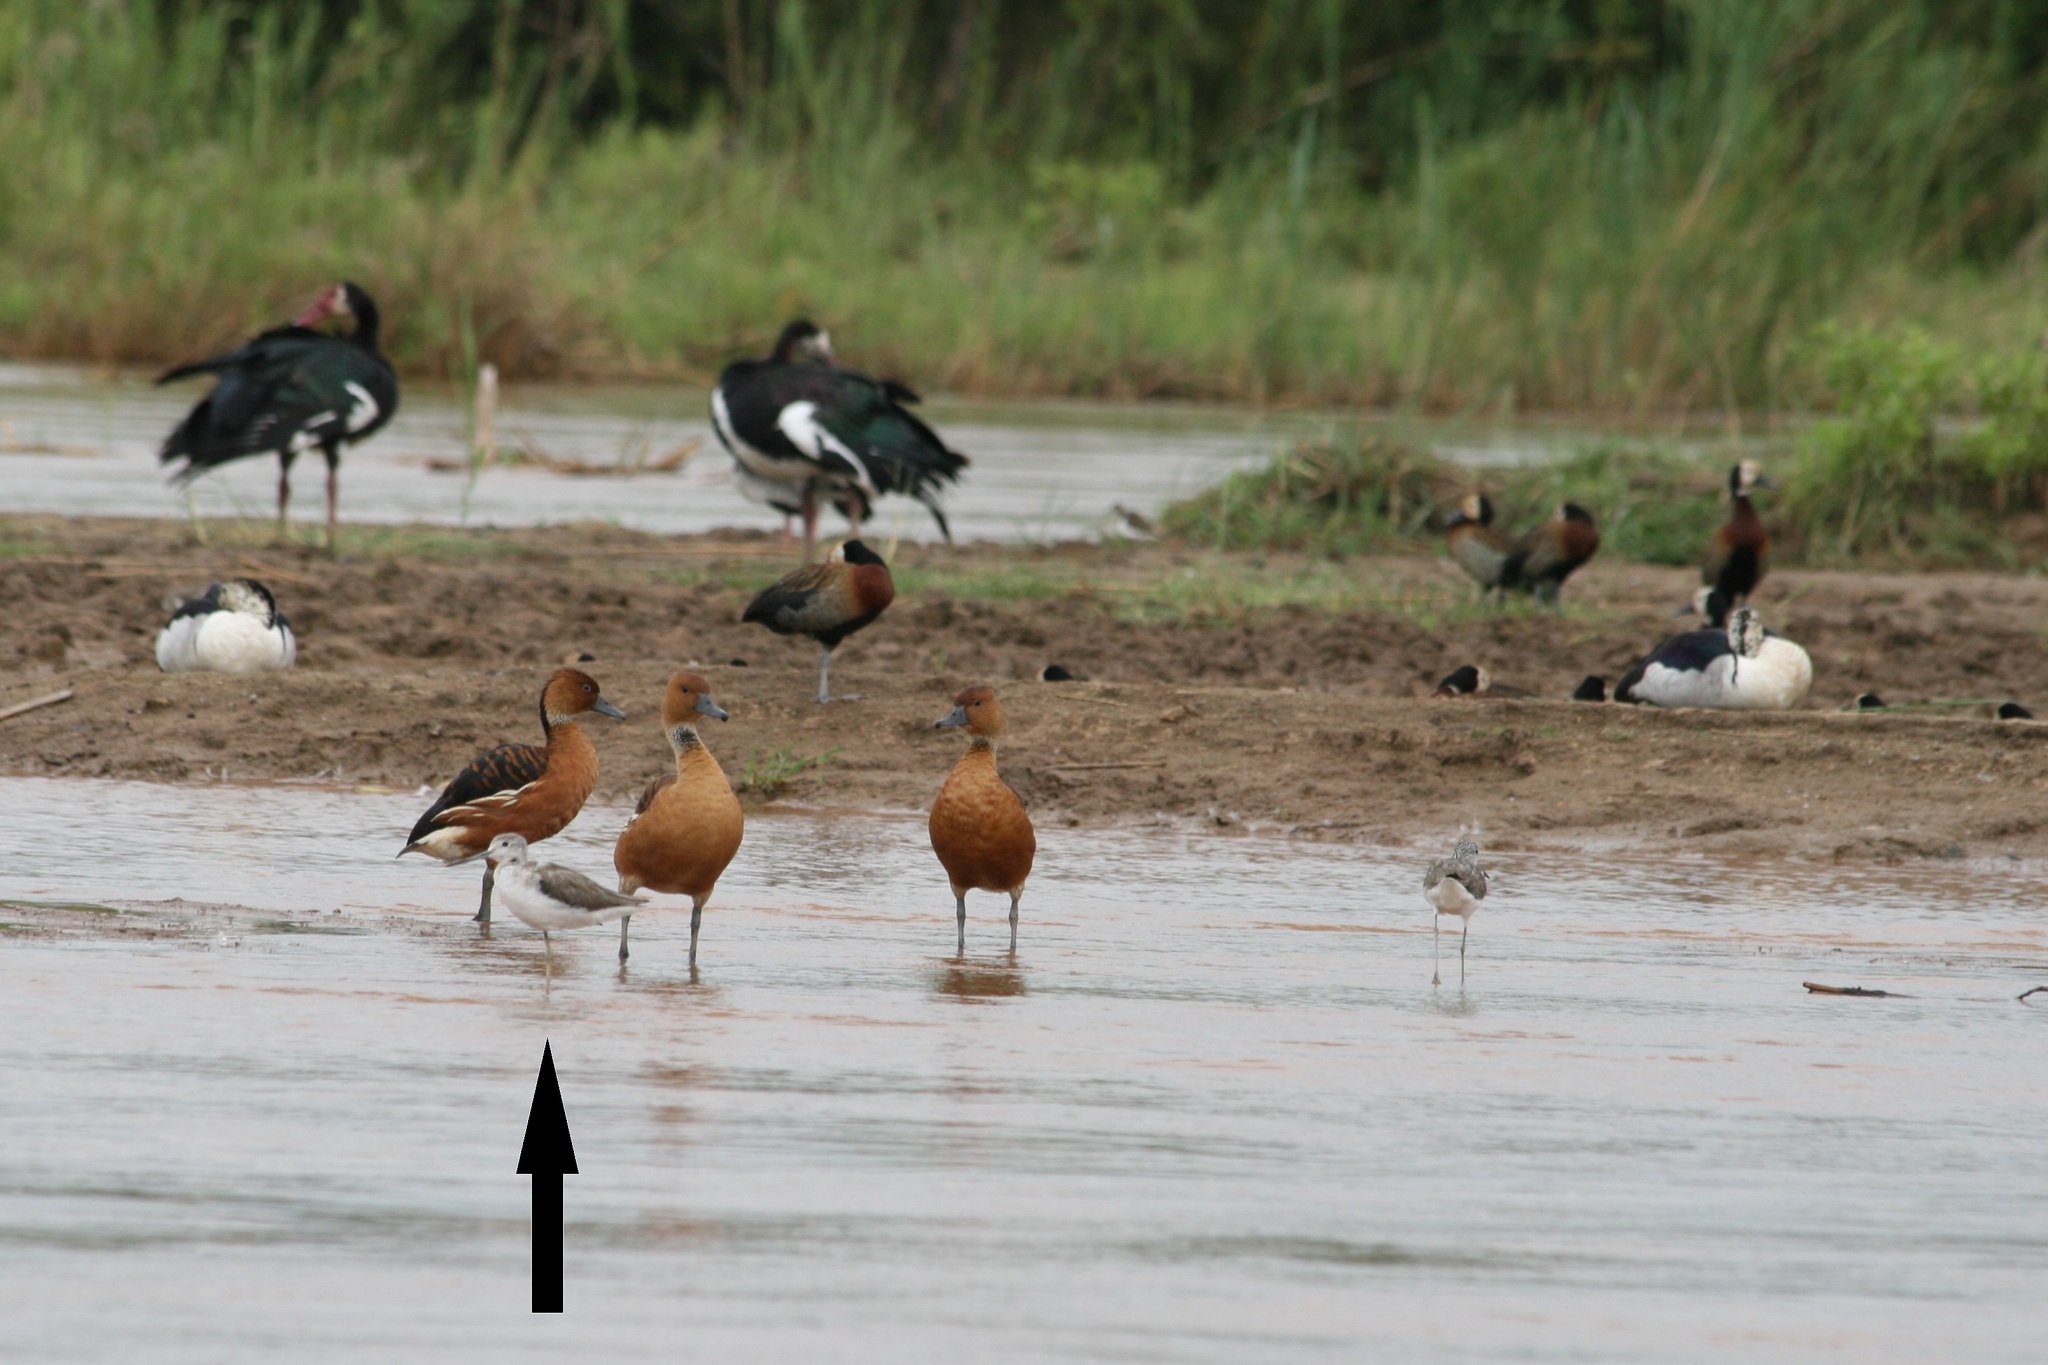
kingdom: Animalia
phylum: Chordata
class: Aves
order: Charadriiformes
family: Scolopacidae
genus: Tringa
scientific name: Tringa nebularia
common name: Common greenshank
